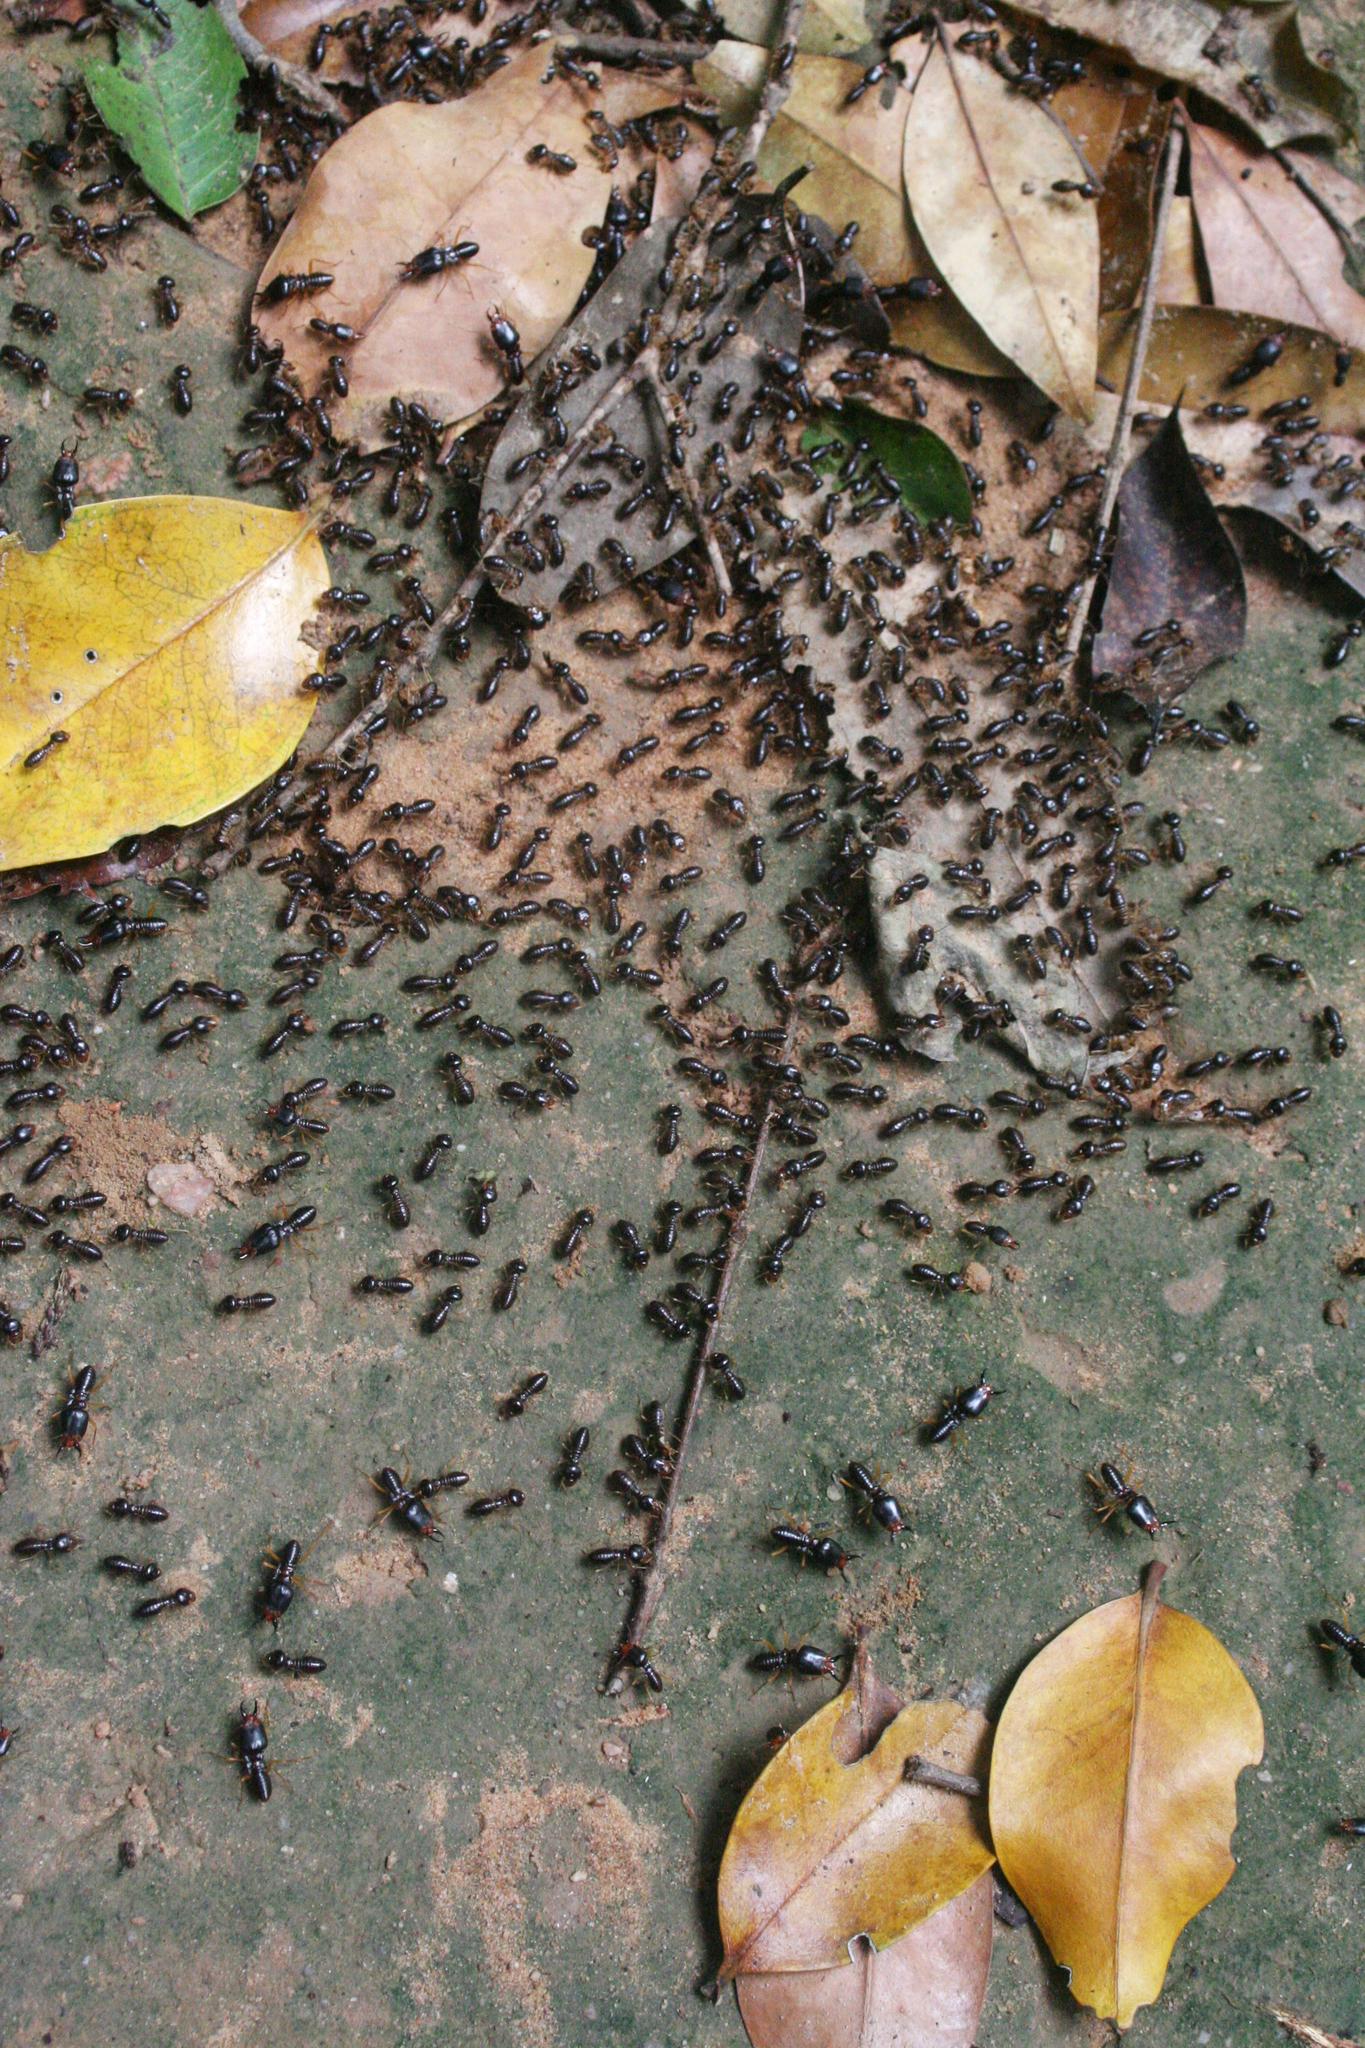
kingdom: Animalia
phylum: Arthropoda
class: Insecta
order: Blattodea
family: Termitidae
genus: Macrotermes
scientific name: Macrotermes carbonarius
